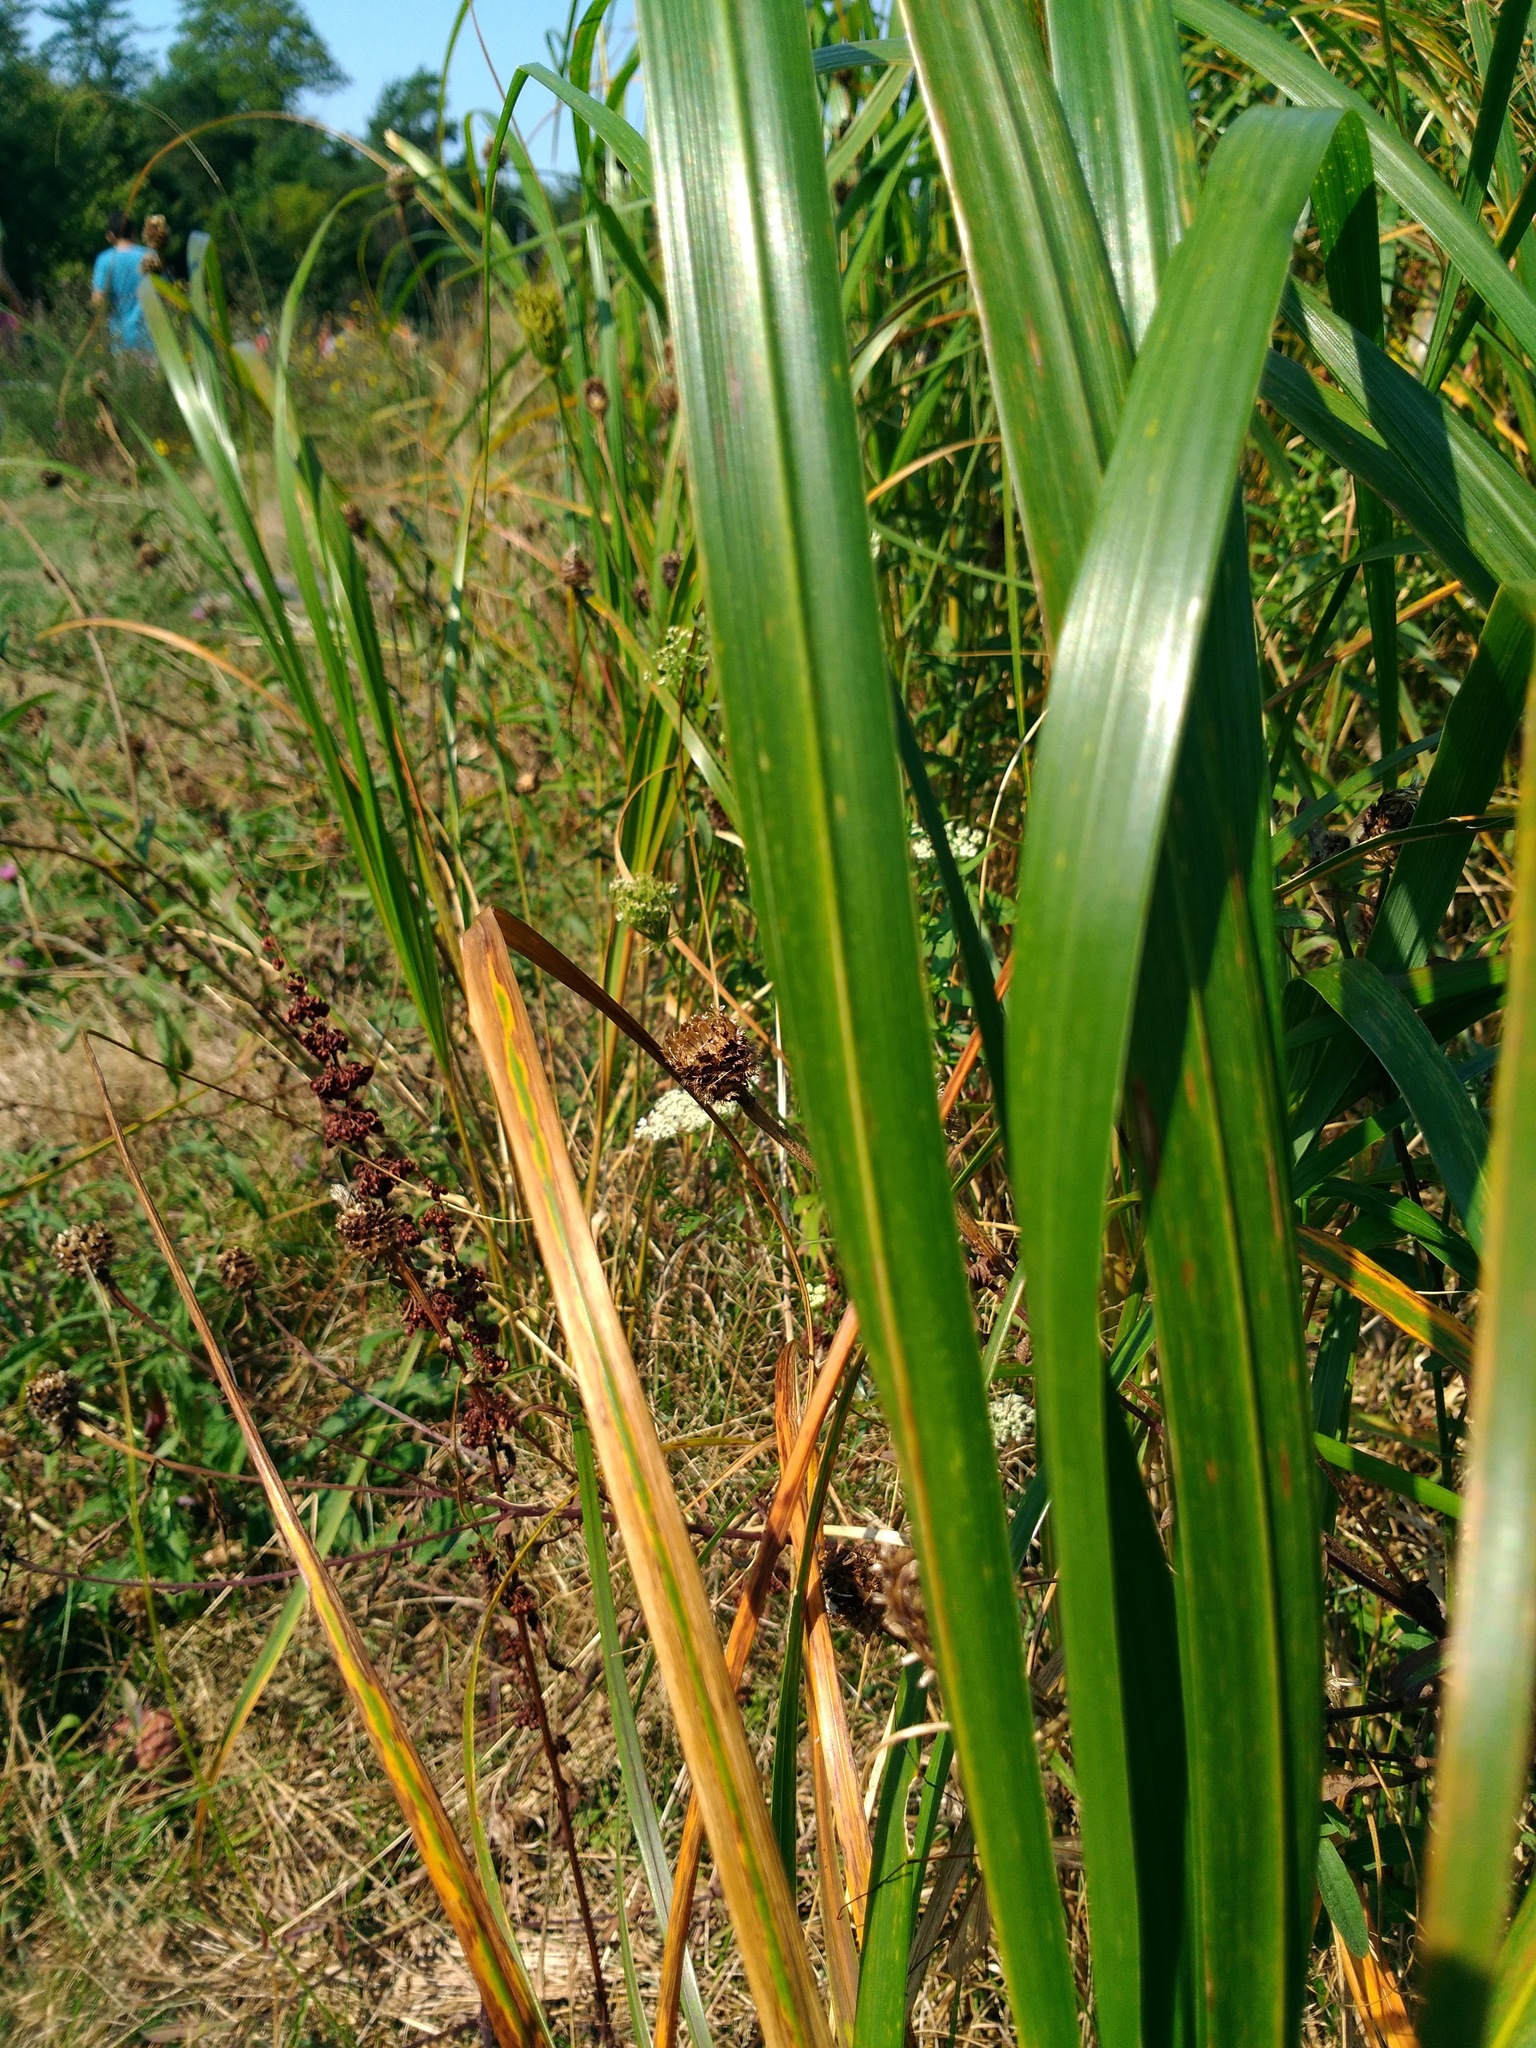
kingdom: Plantae
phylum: Tracheophyta
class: Liliopsida
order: Poales
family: Poaceae
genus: Sporobolus
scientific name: Sporobolus michauxianus
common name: Freshwater cordgrass
